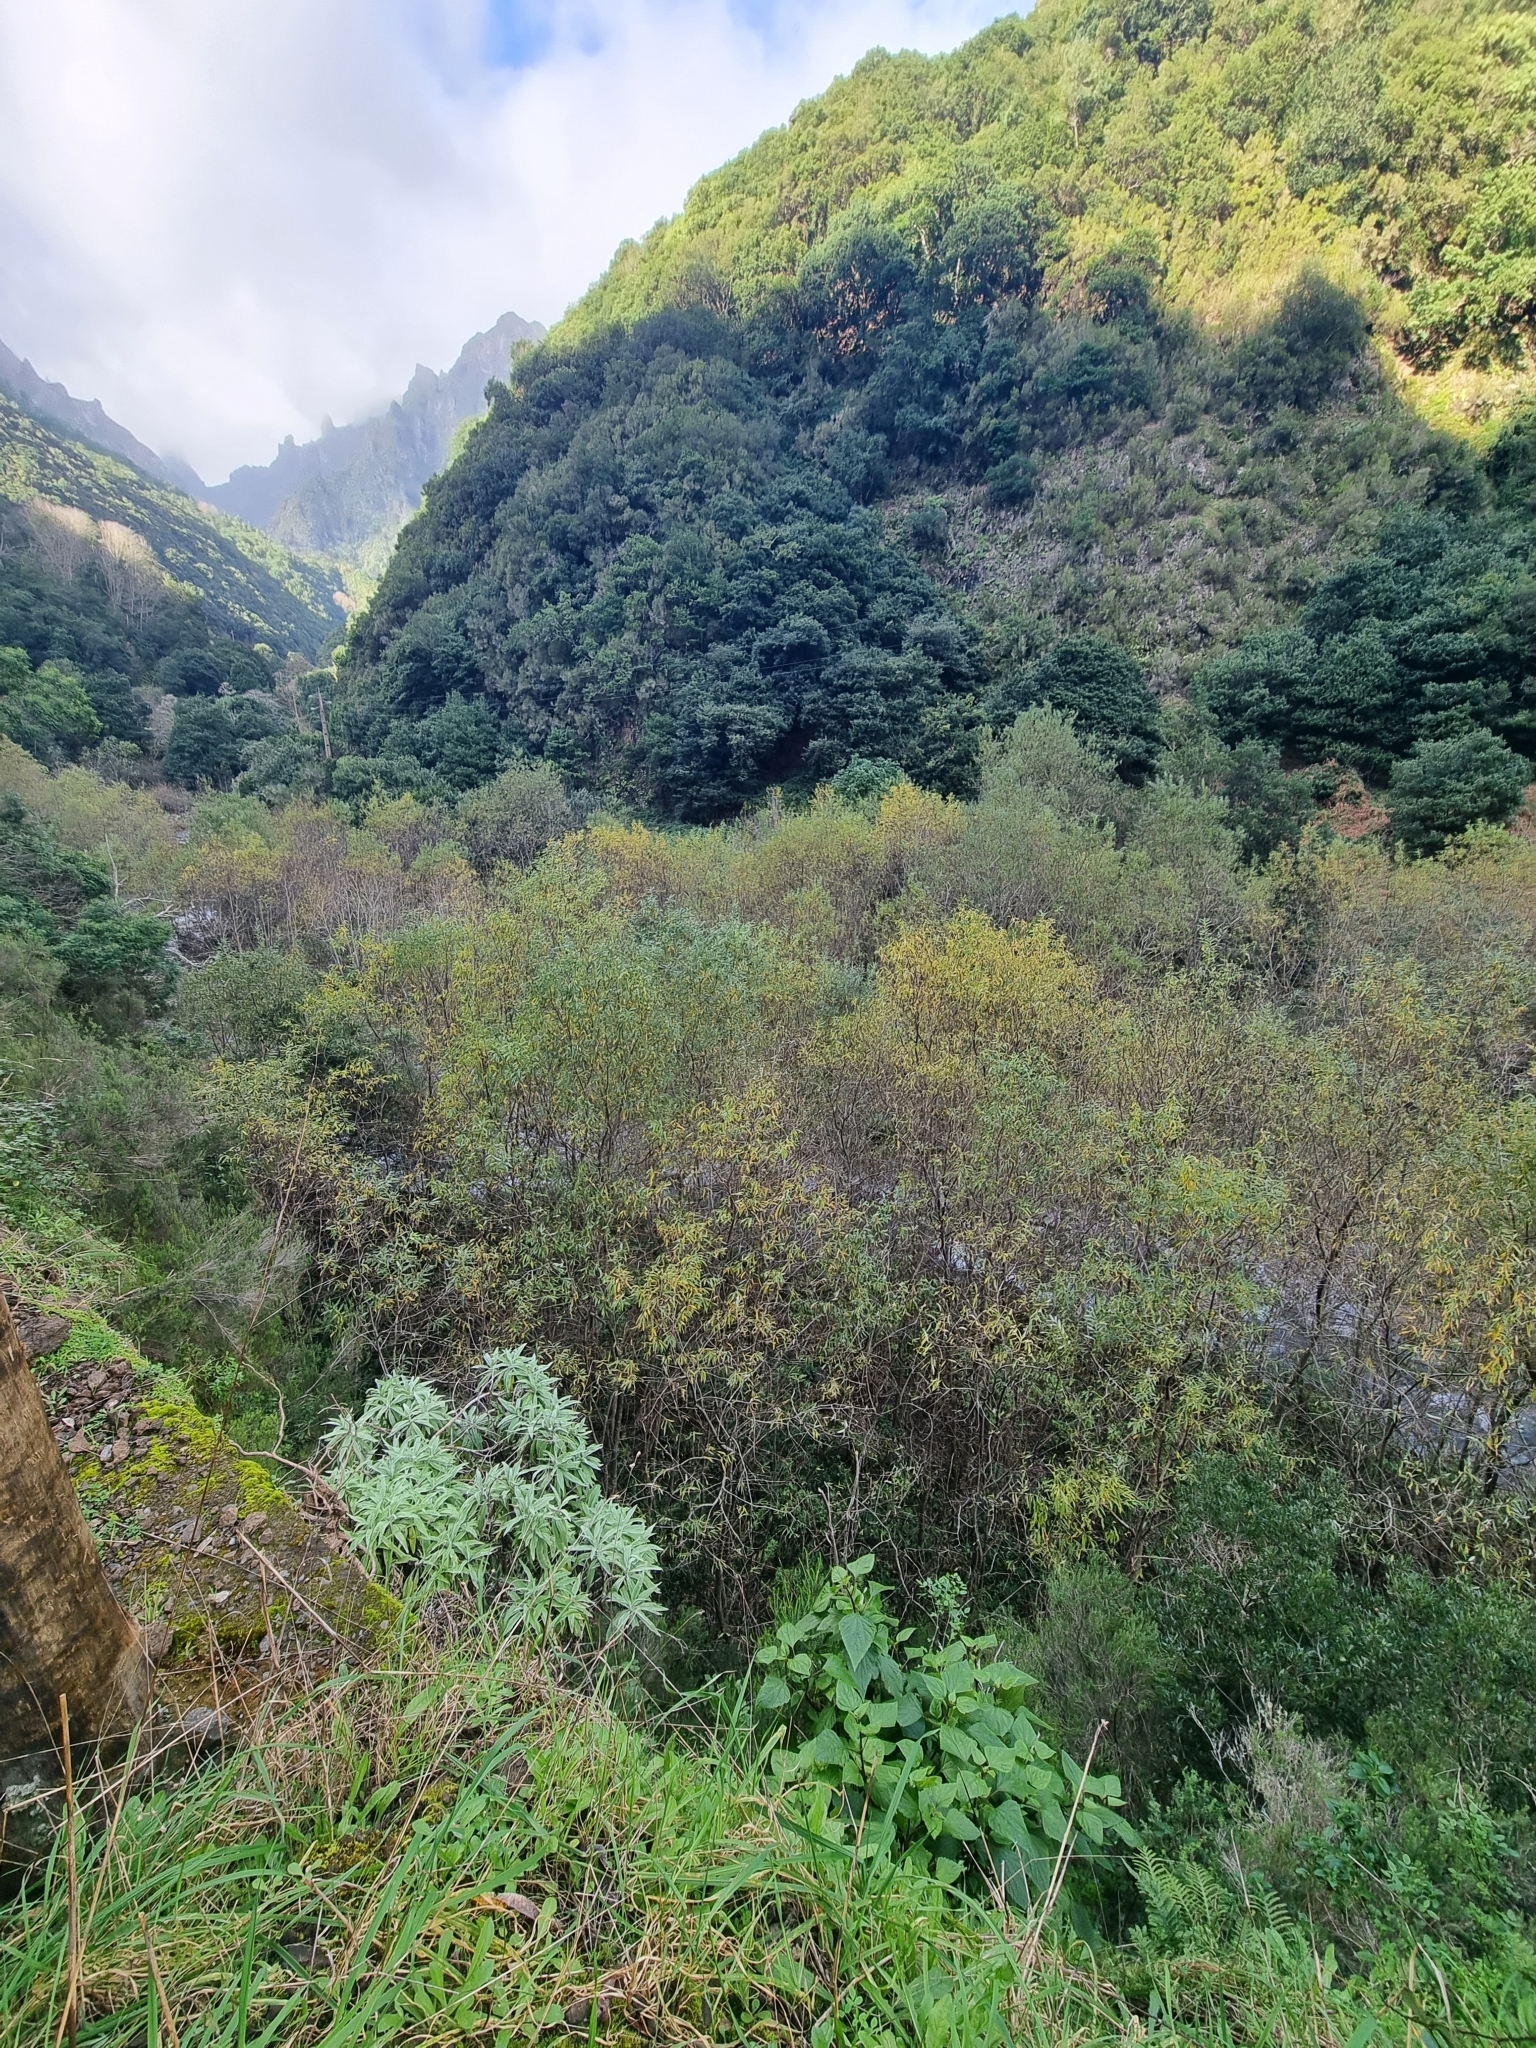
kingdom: Plantae
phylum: Tracheophyta
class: Magnoliopsida
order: Malpighiales
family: Salicaceae
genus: Salix
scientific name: Salix canariensis
